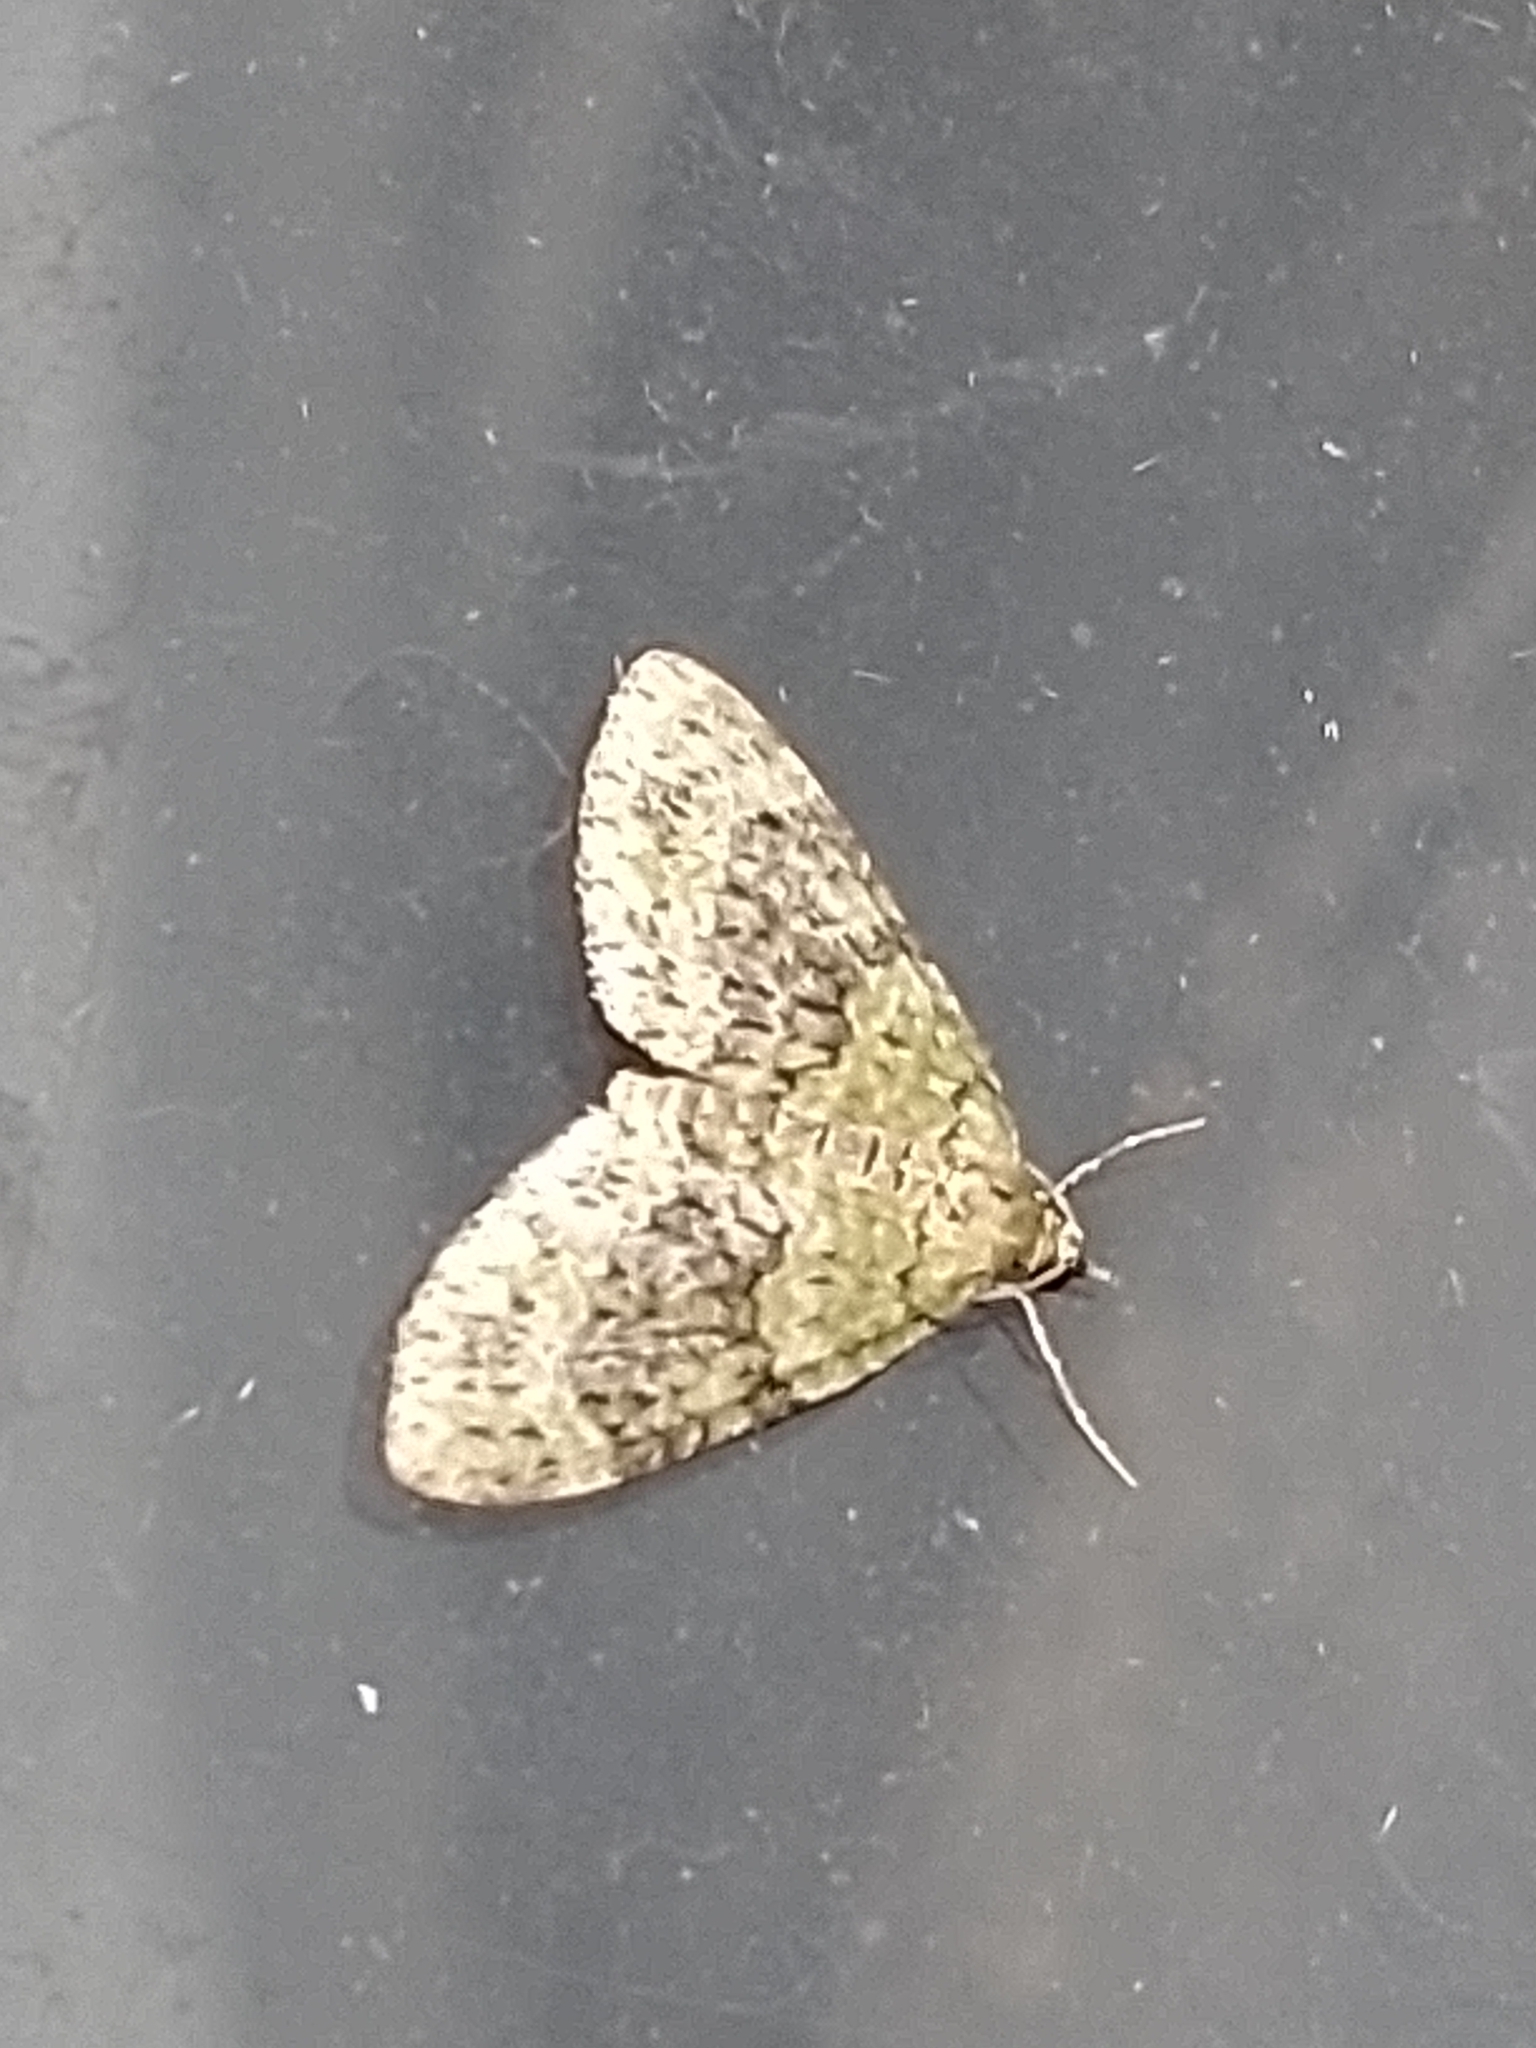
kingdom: Animalia
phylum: Arthropoda
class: Insecta
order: Lepidoptera
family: Geometridae
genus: Acasis
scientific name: Acasis viretata
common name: Yellow-barred brindle
